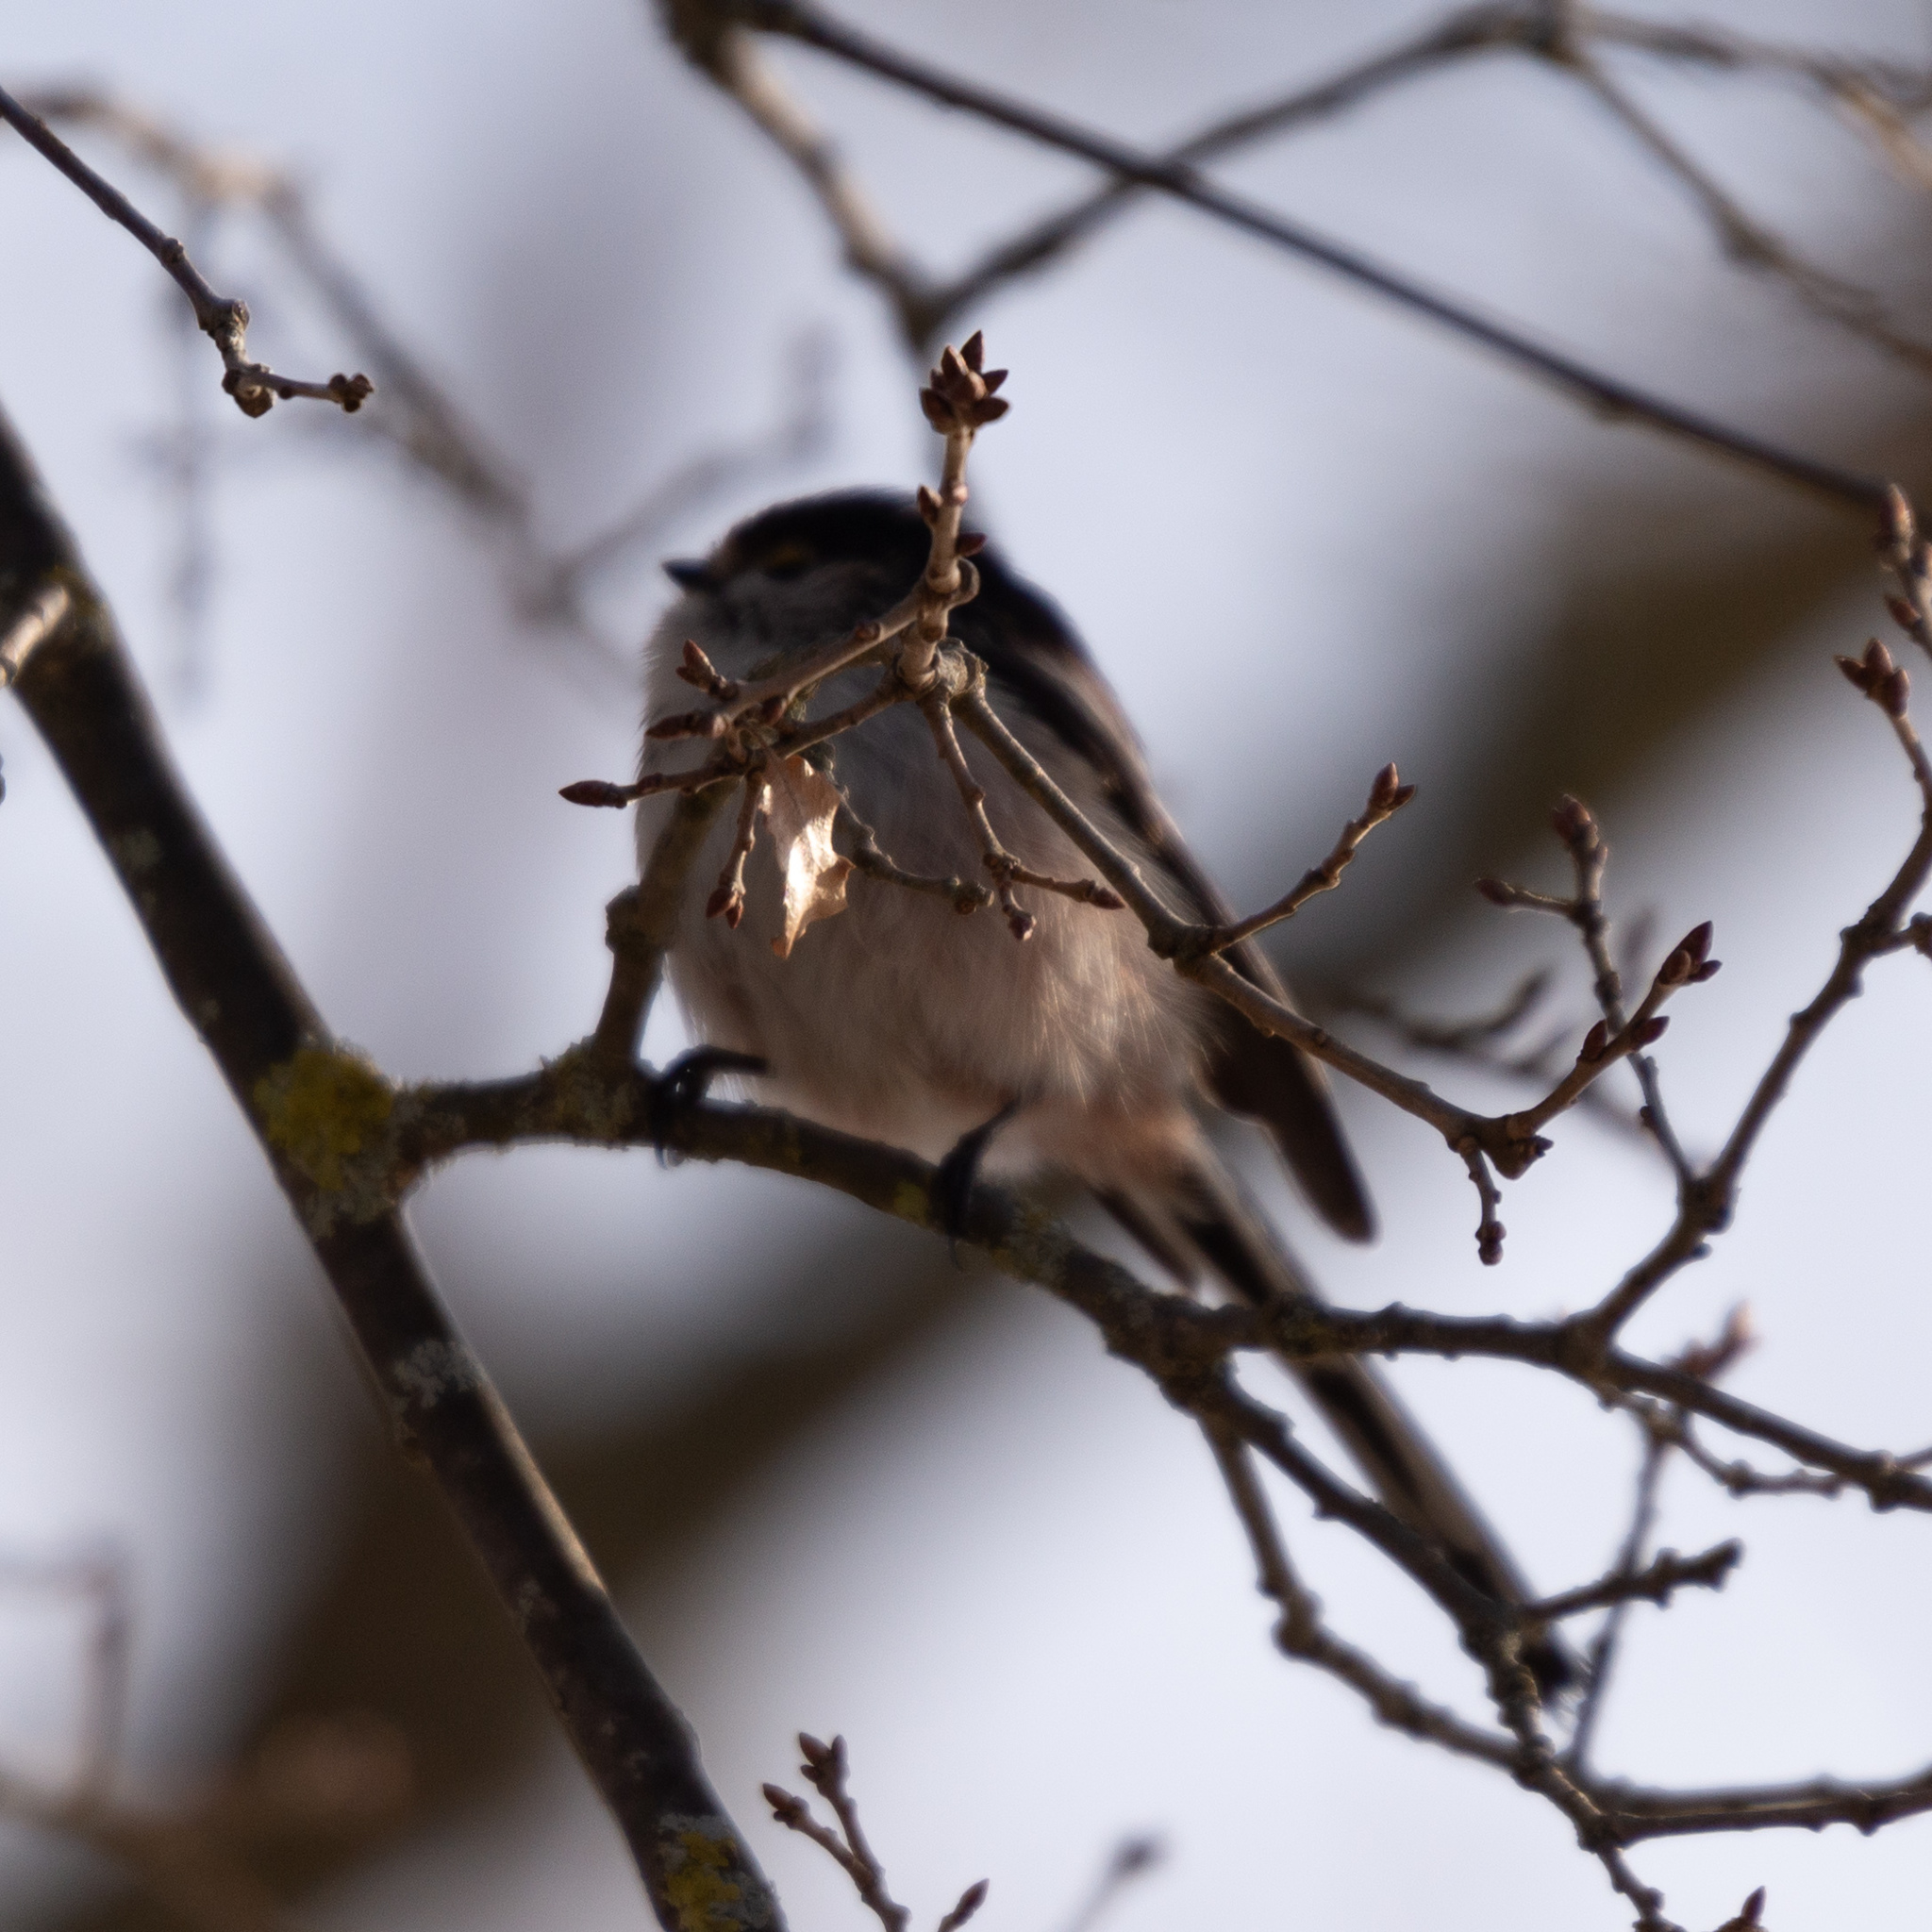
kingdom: Animalia
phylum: Chordata
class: Aves
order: Passeriformes
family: Aegithalidae
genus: Aegithalos
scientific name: Aegithalos caudatus
